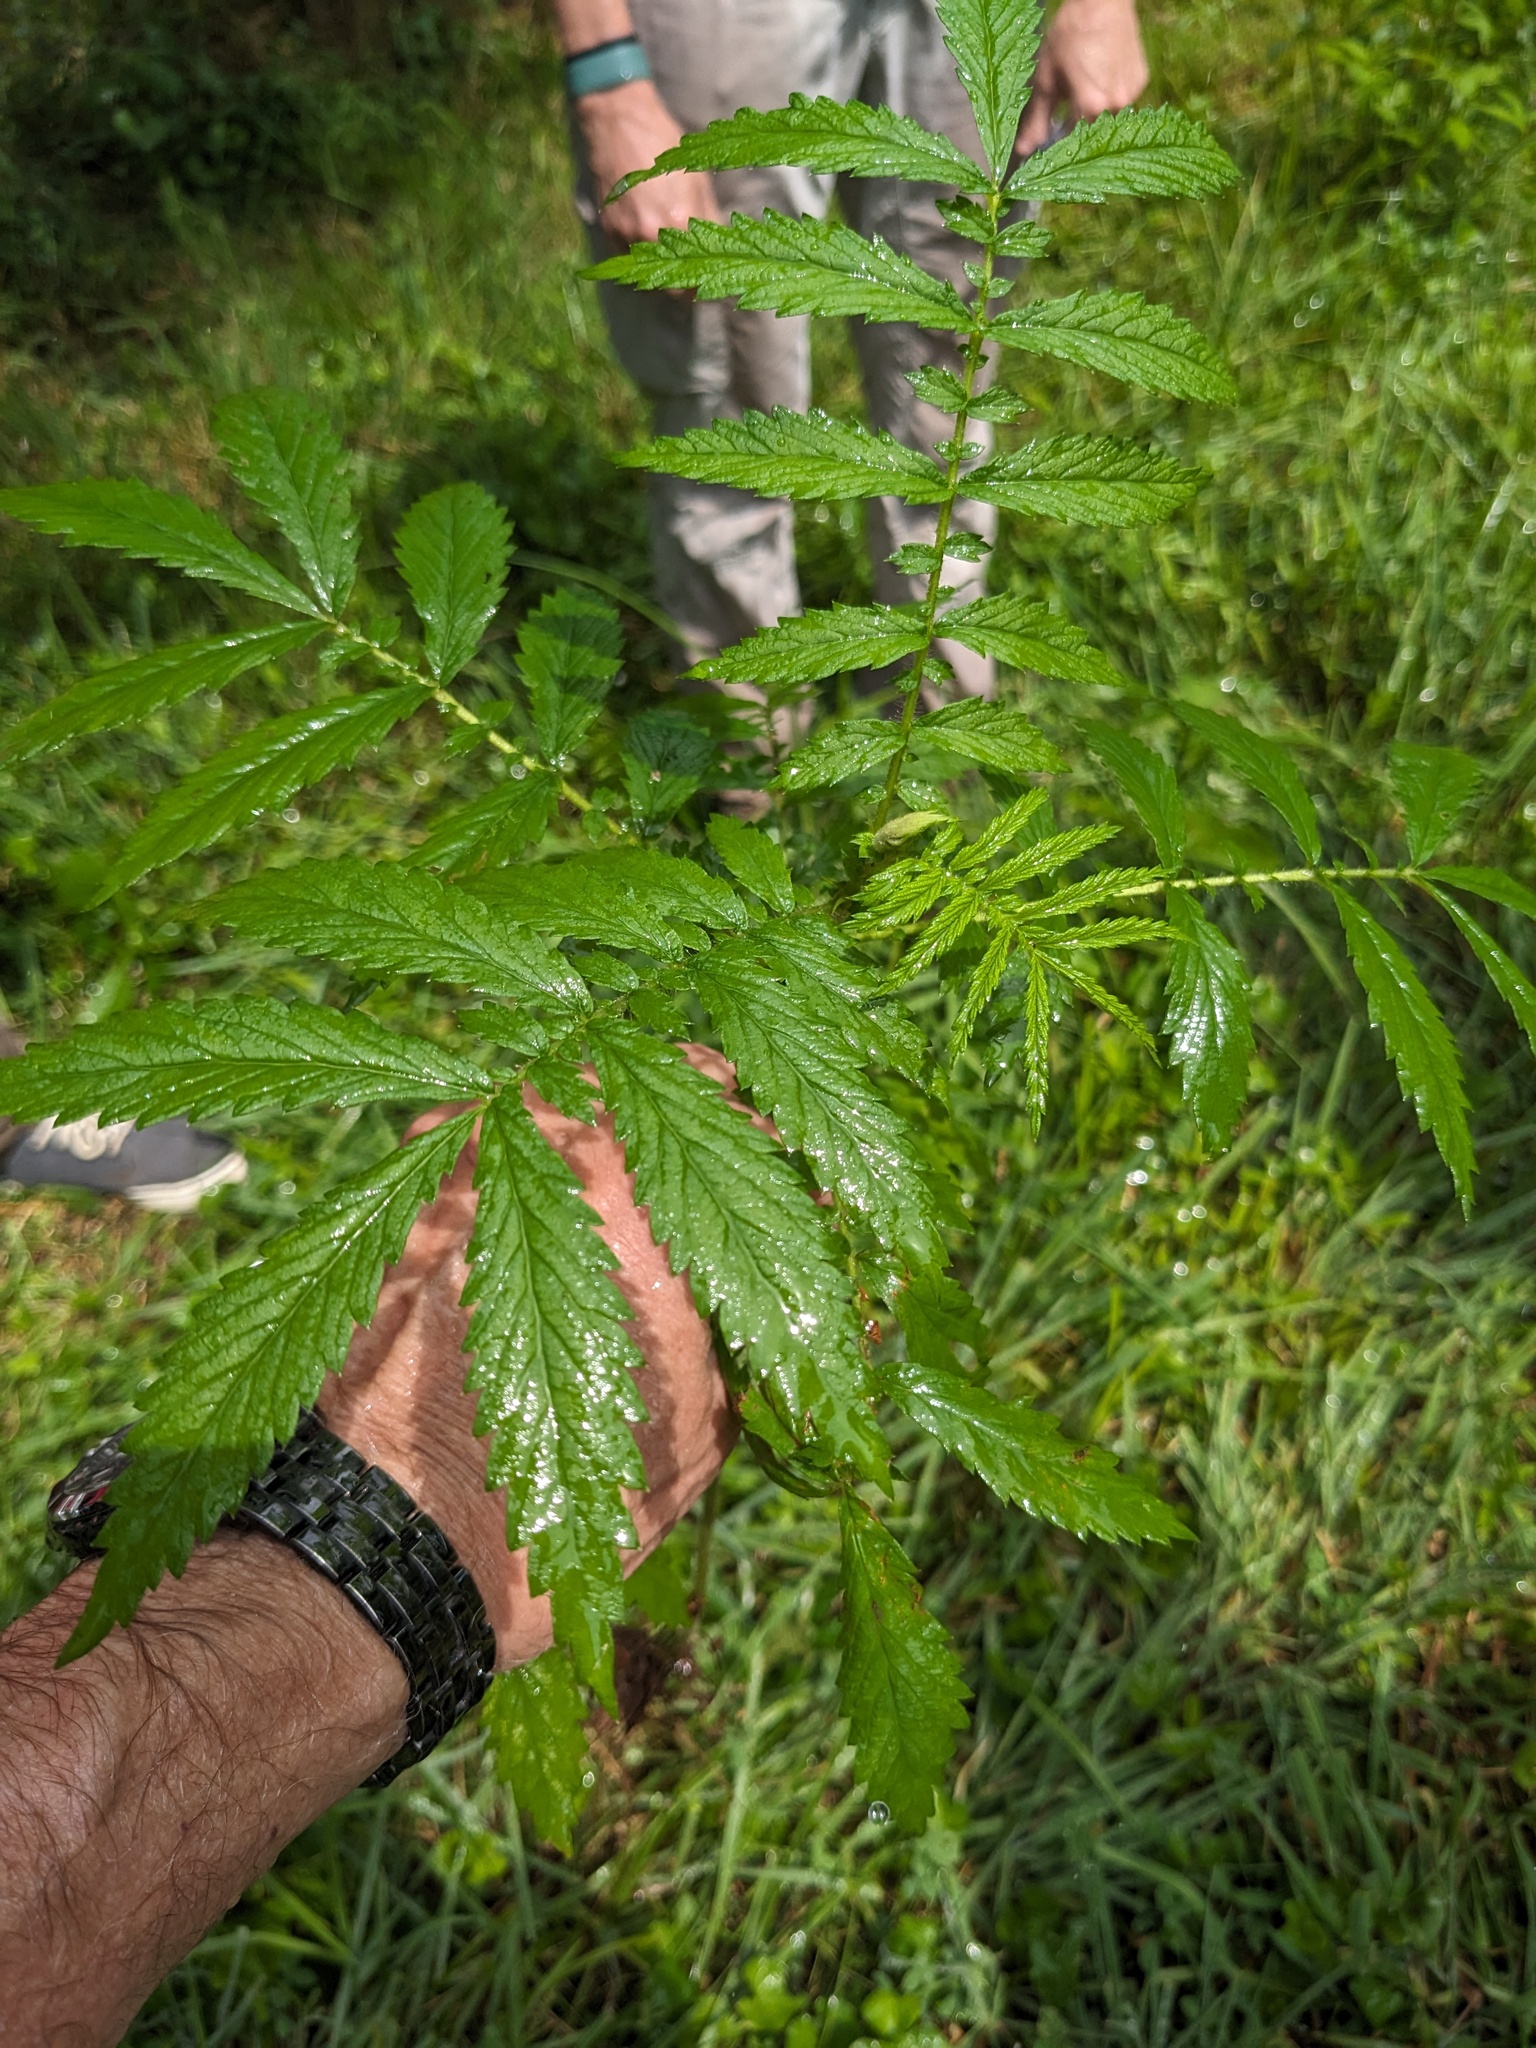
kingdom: Plantae
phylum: Tracheophyta
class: Magnoliopsida
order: Rosales
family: Rosaceae
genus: Agrimonia
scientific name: Agrimonia parviflora
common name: Harvest-lice
